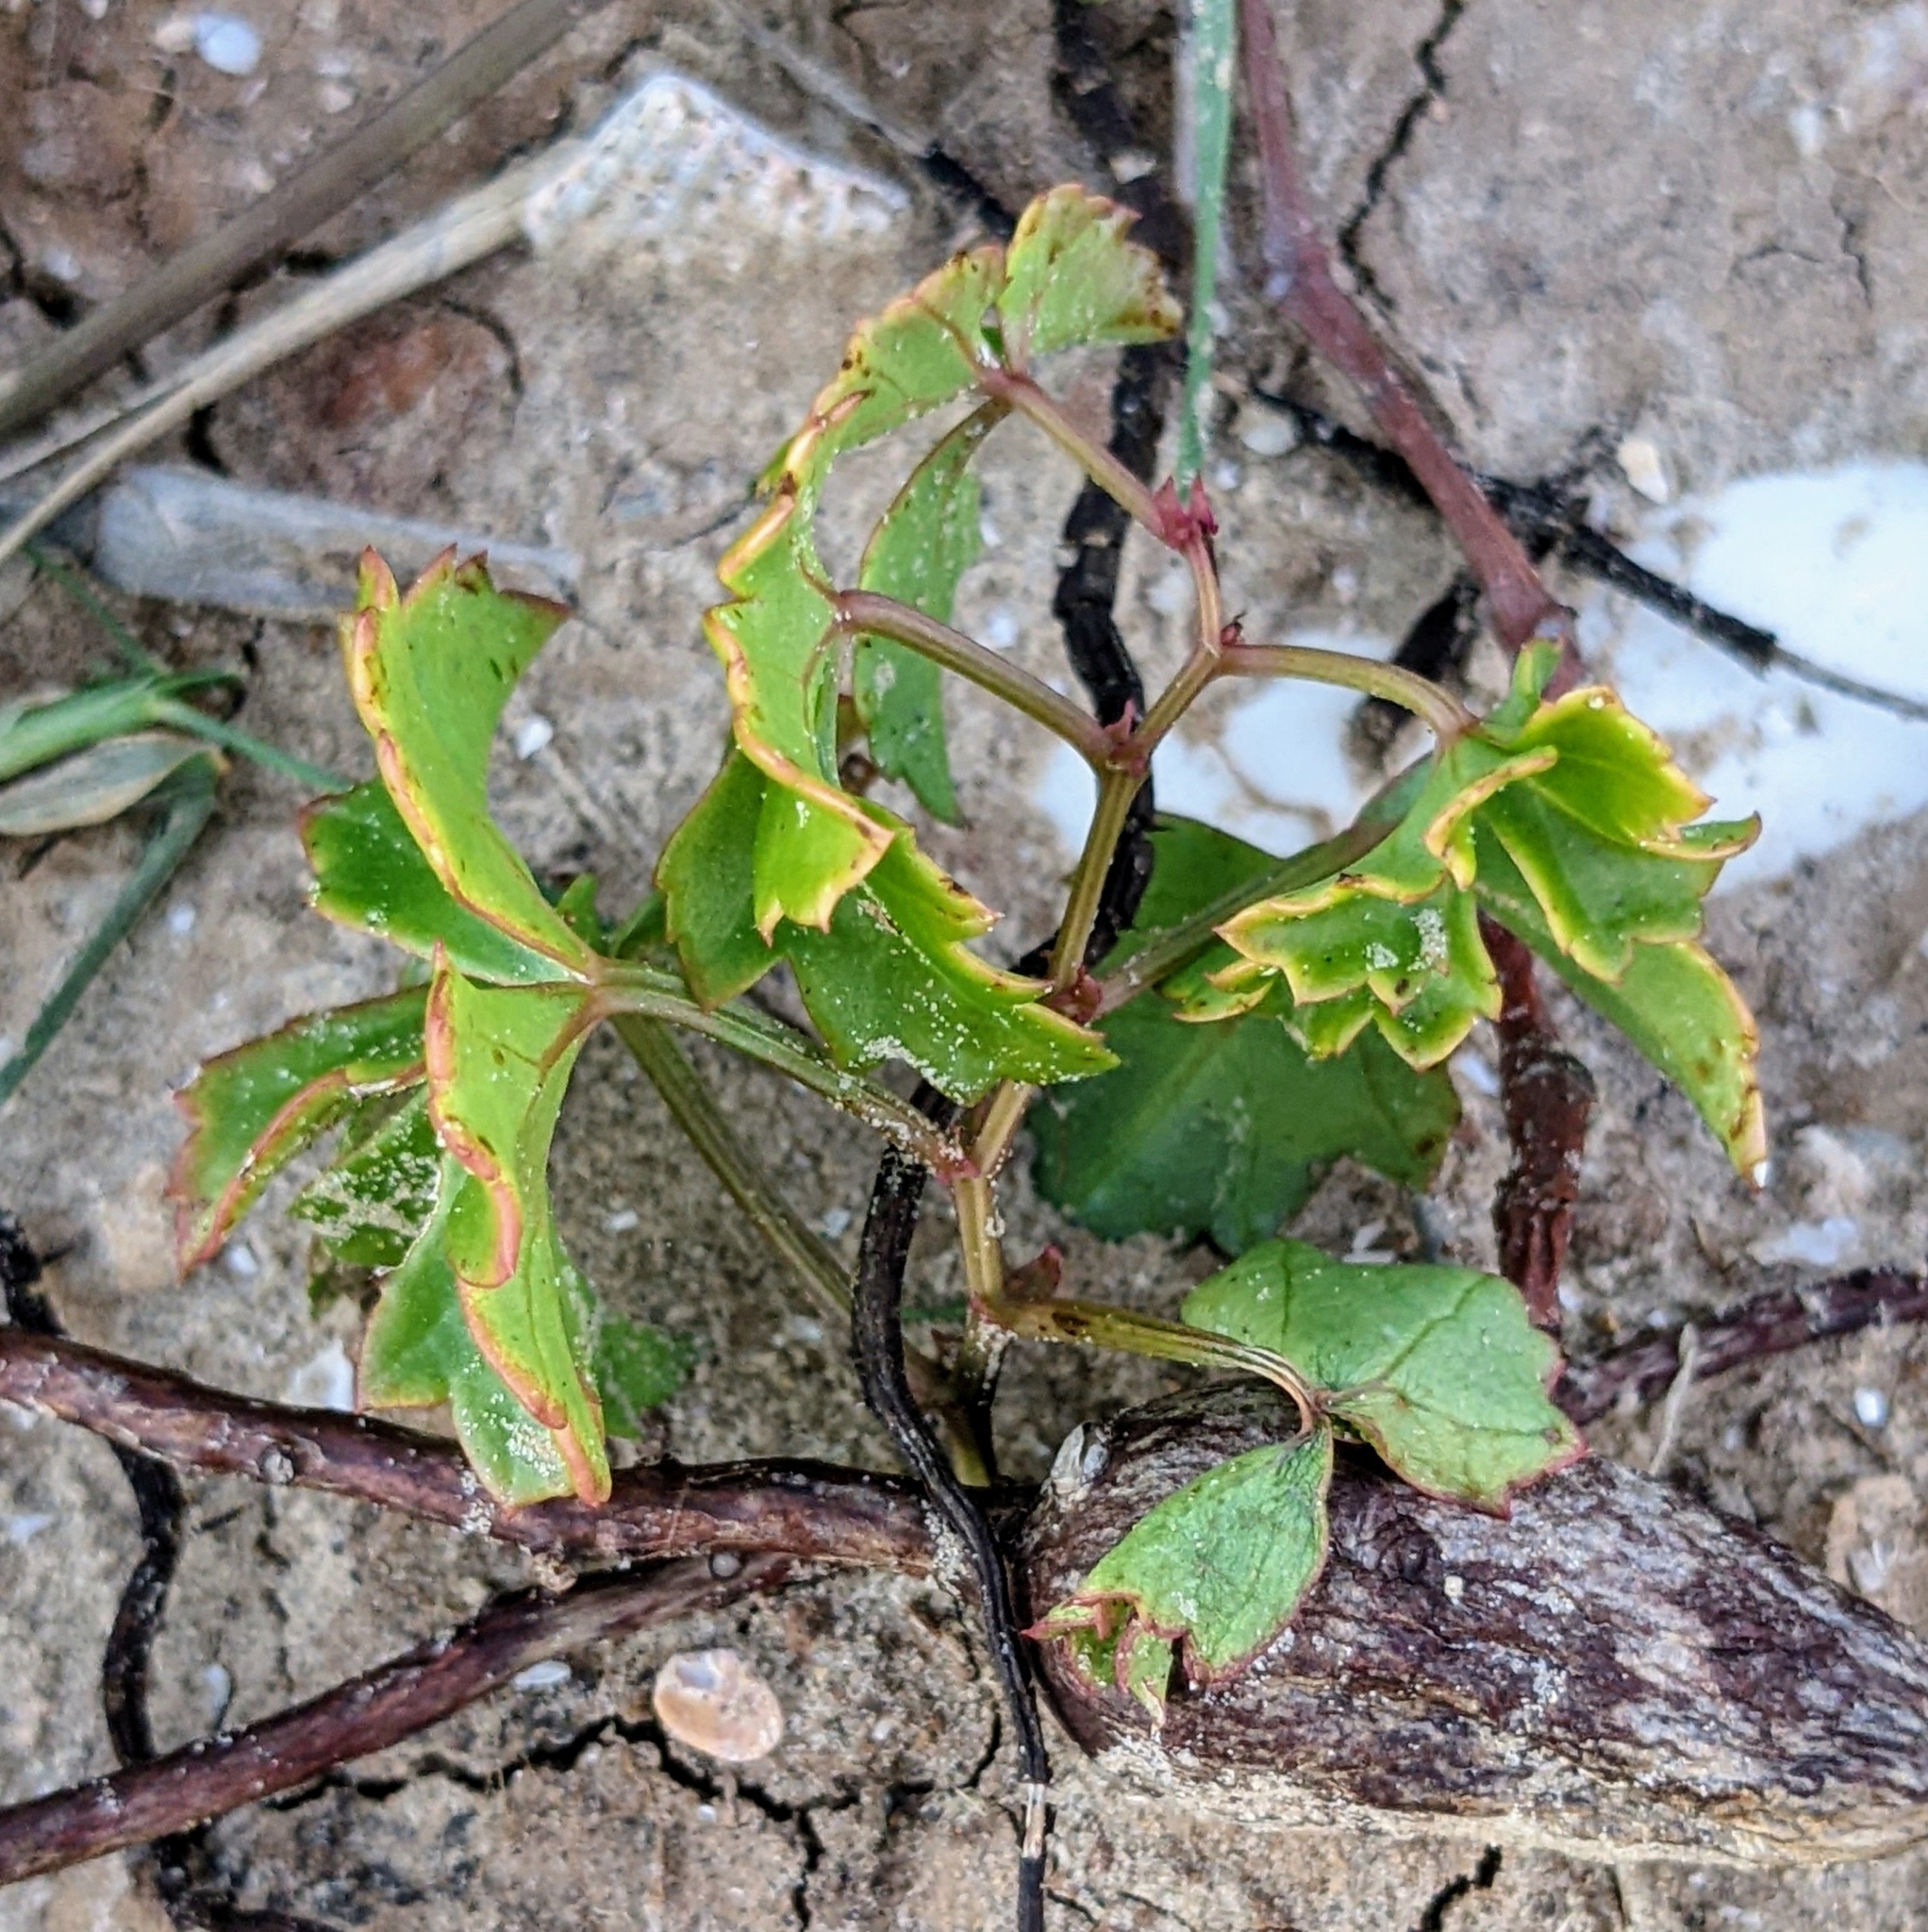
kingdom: Plantae
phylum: Tracheophyta
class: Magnoliopsida
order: Vitales
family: Vitaceae
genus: Cissus
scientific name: Cissus trifoliata
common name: Vine-sorrel
